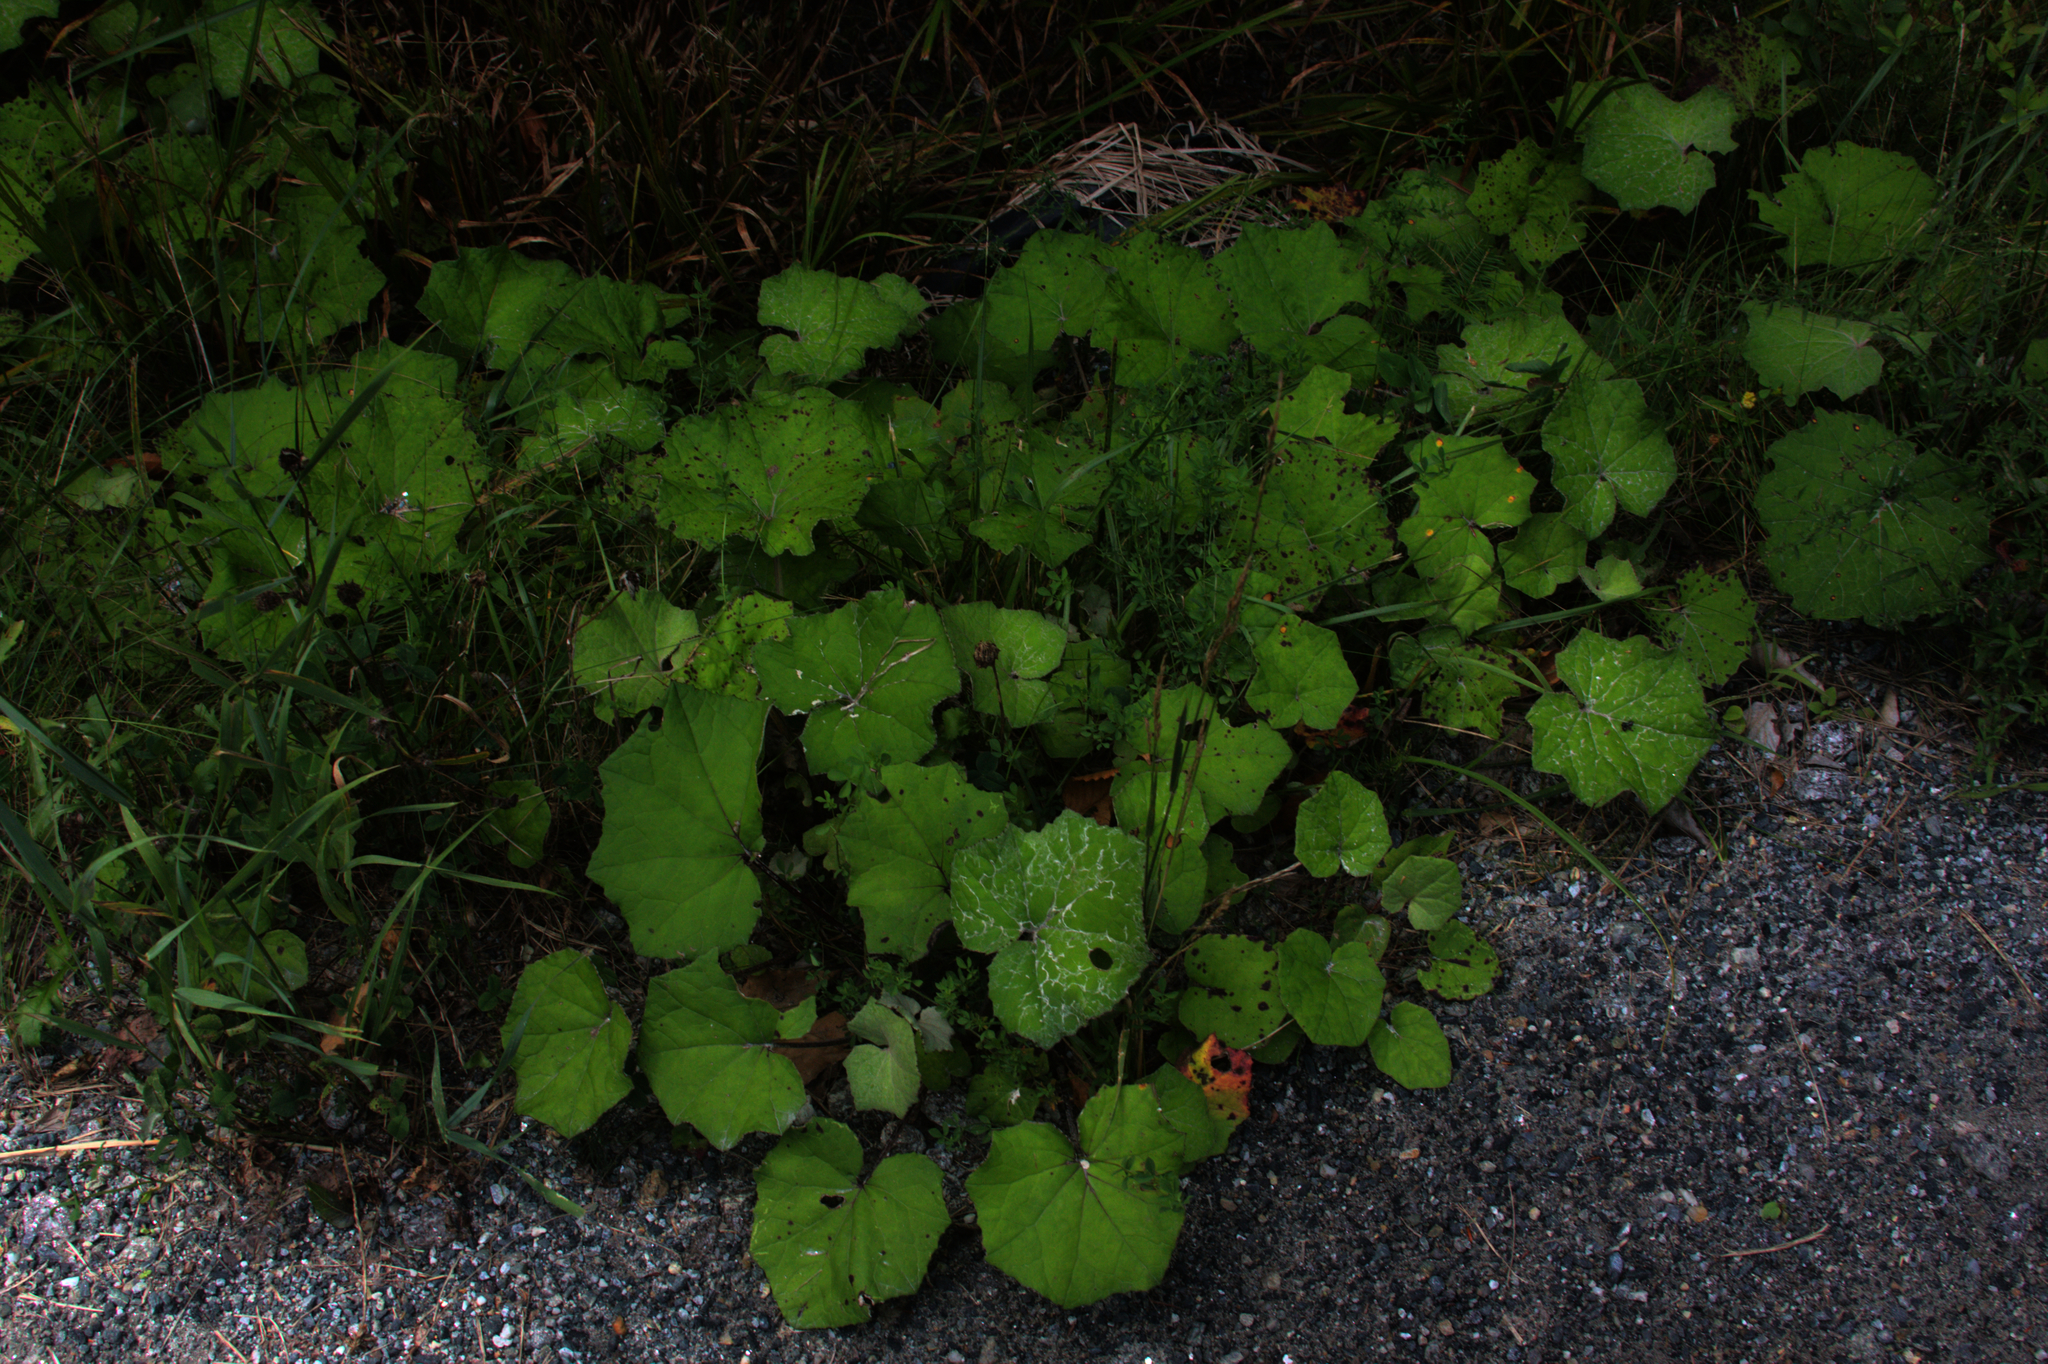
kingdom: Plantae
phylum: Tracheophyta
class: Magnoliopsida
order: Asterales
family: Asteraceae
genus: Tussilago
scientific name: Tussilago farfara
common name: Coltsfoot
